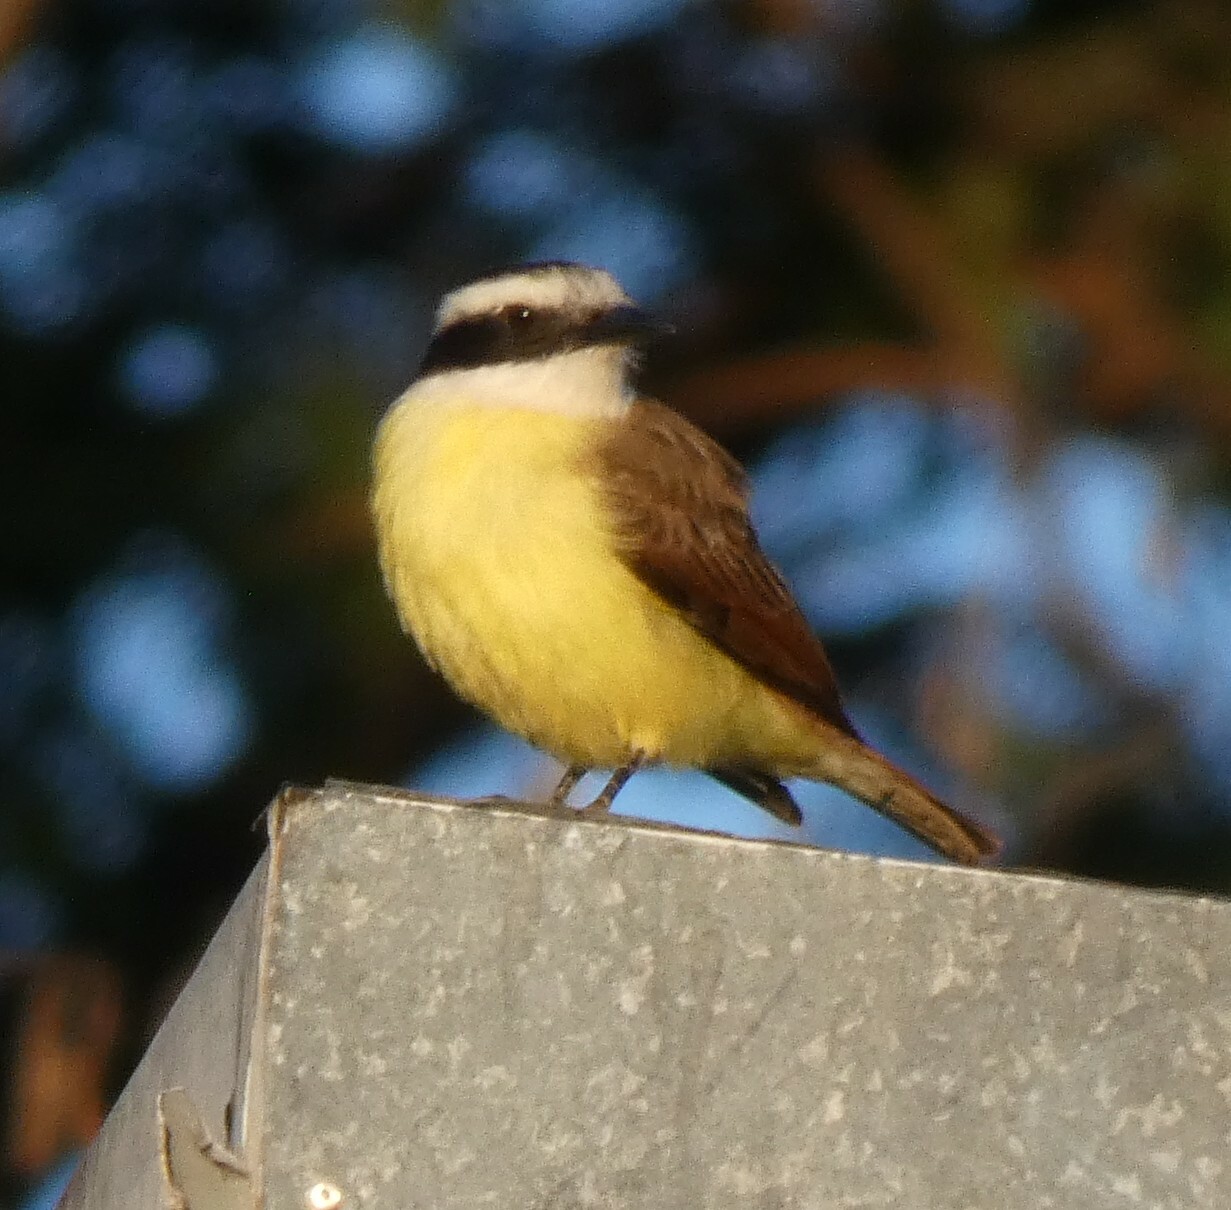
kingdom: Animalia
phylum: Chordata
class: Aves
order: Passeriformes
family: Tyrannidae
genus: Pitangus
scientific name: Pitangus sulphuratus
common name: Great kiskadee
